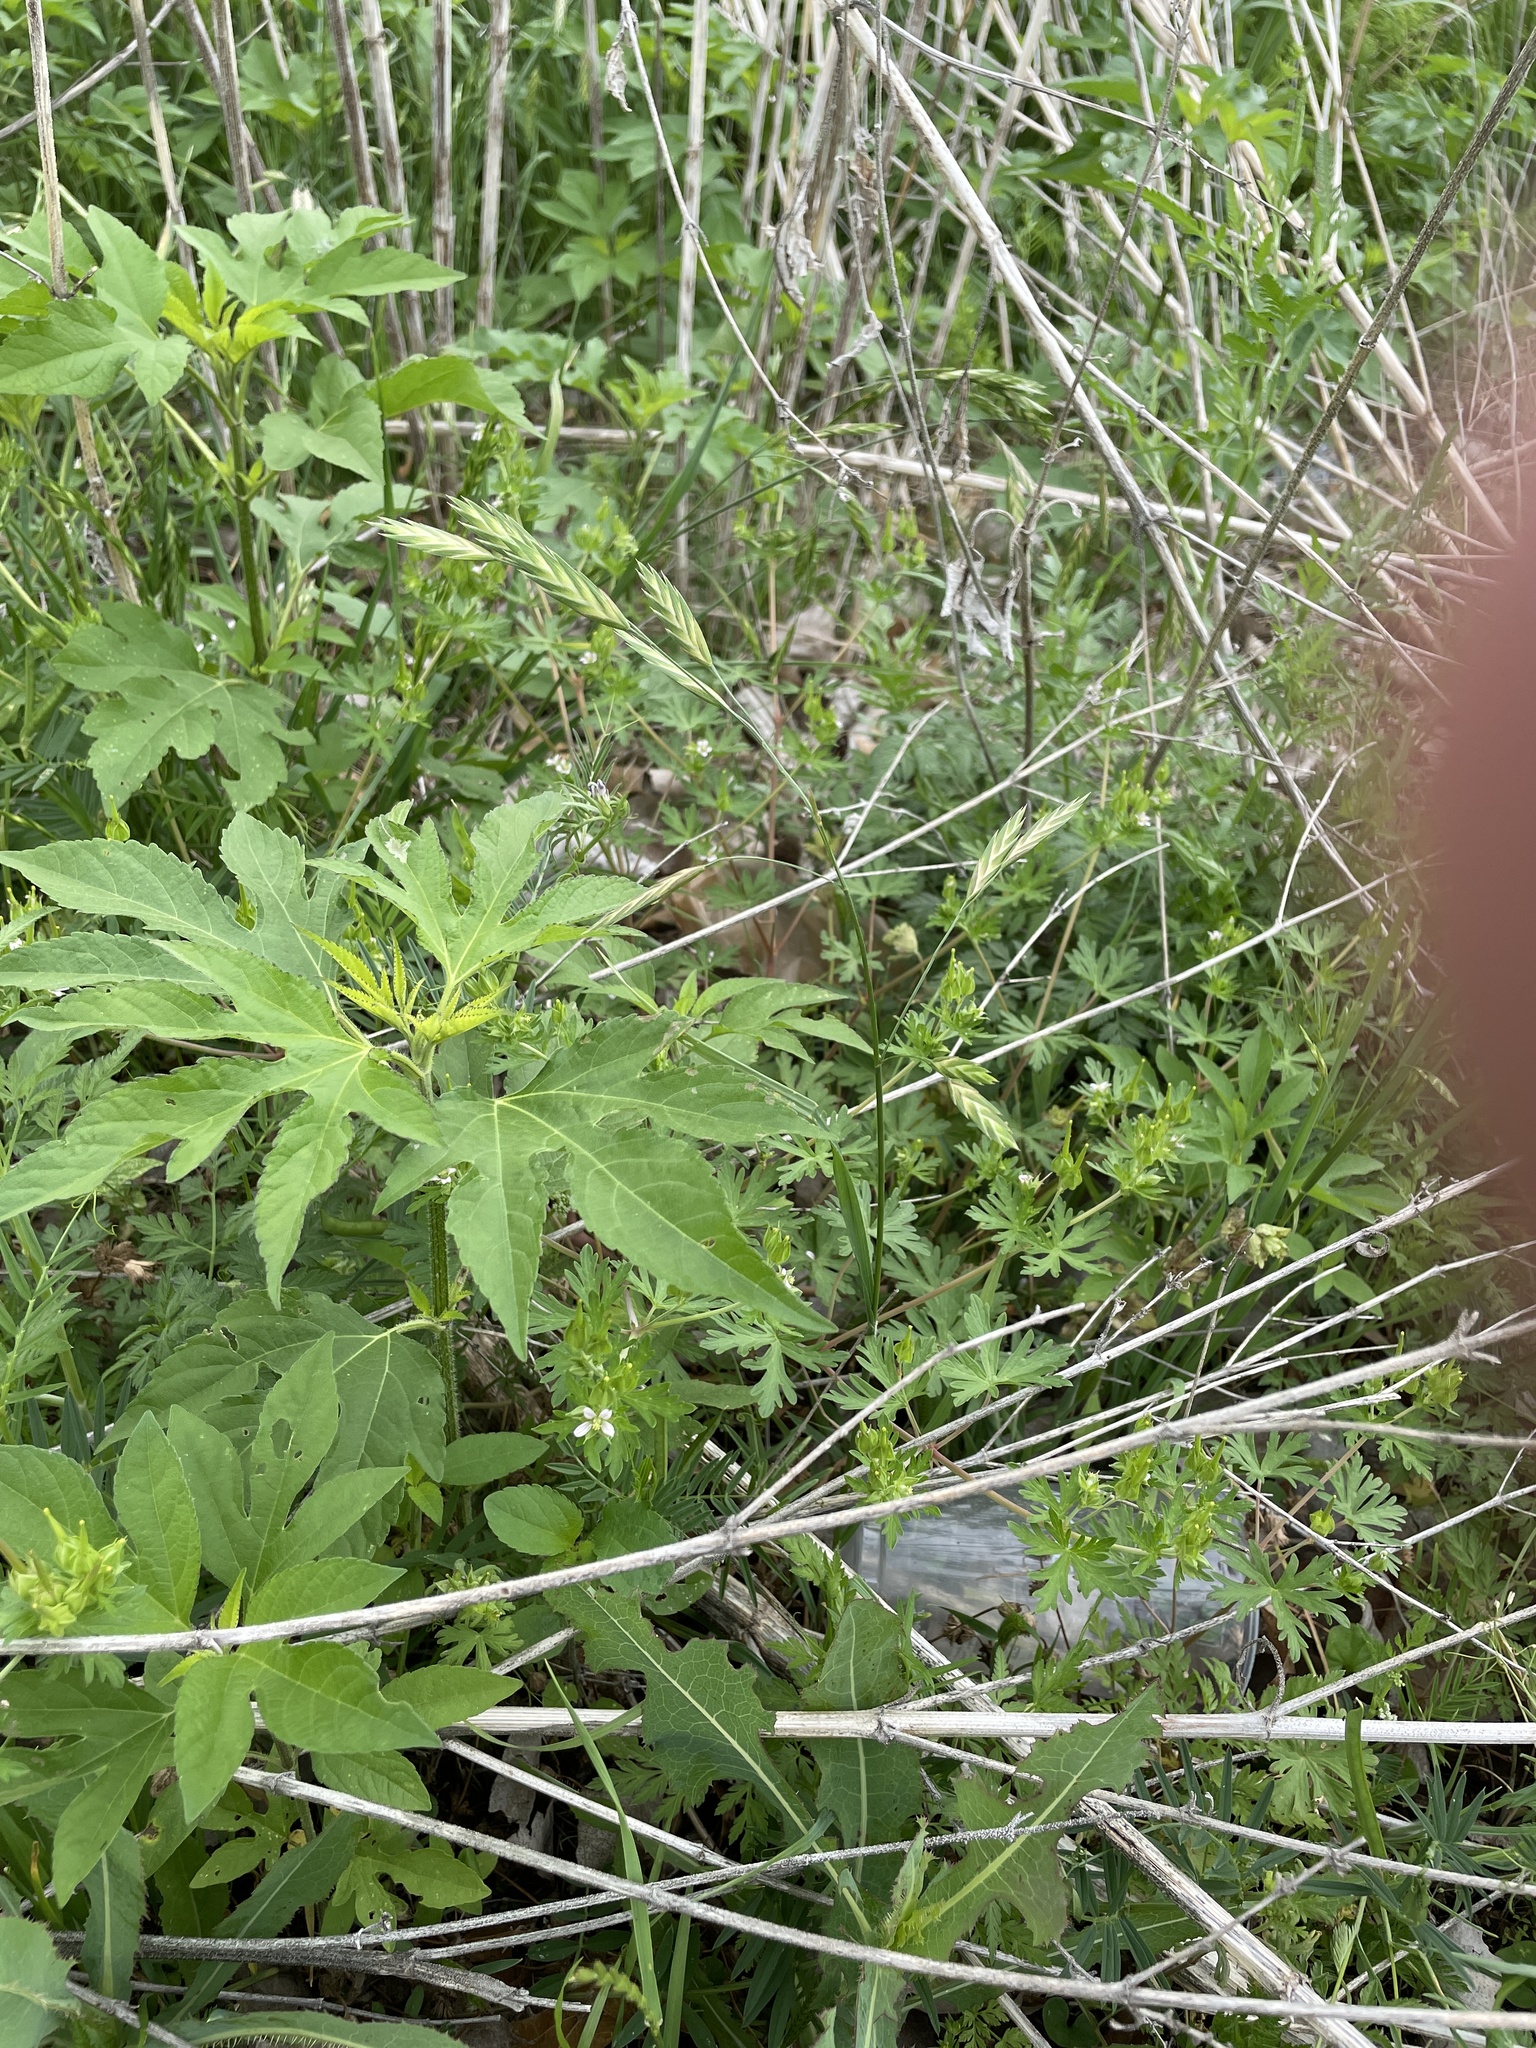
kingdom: Plantae
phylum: Tracheophyta
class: Liliopsida
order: Poales
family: Poaceae
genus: Bromus
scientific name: Bromus catharticus
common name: Rescuegrass
